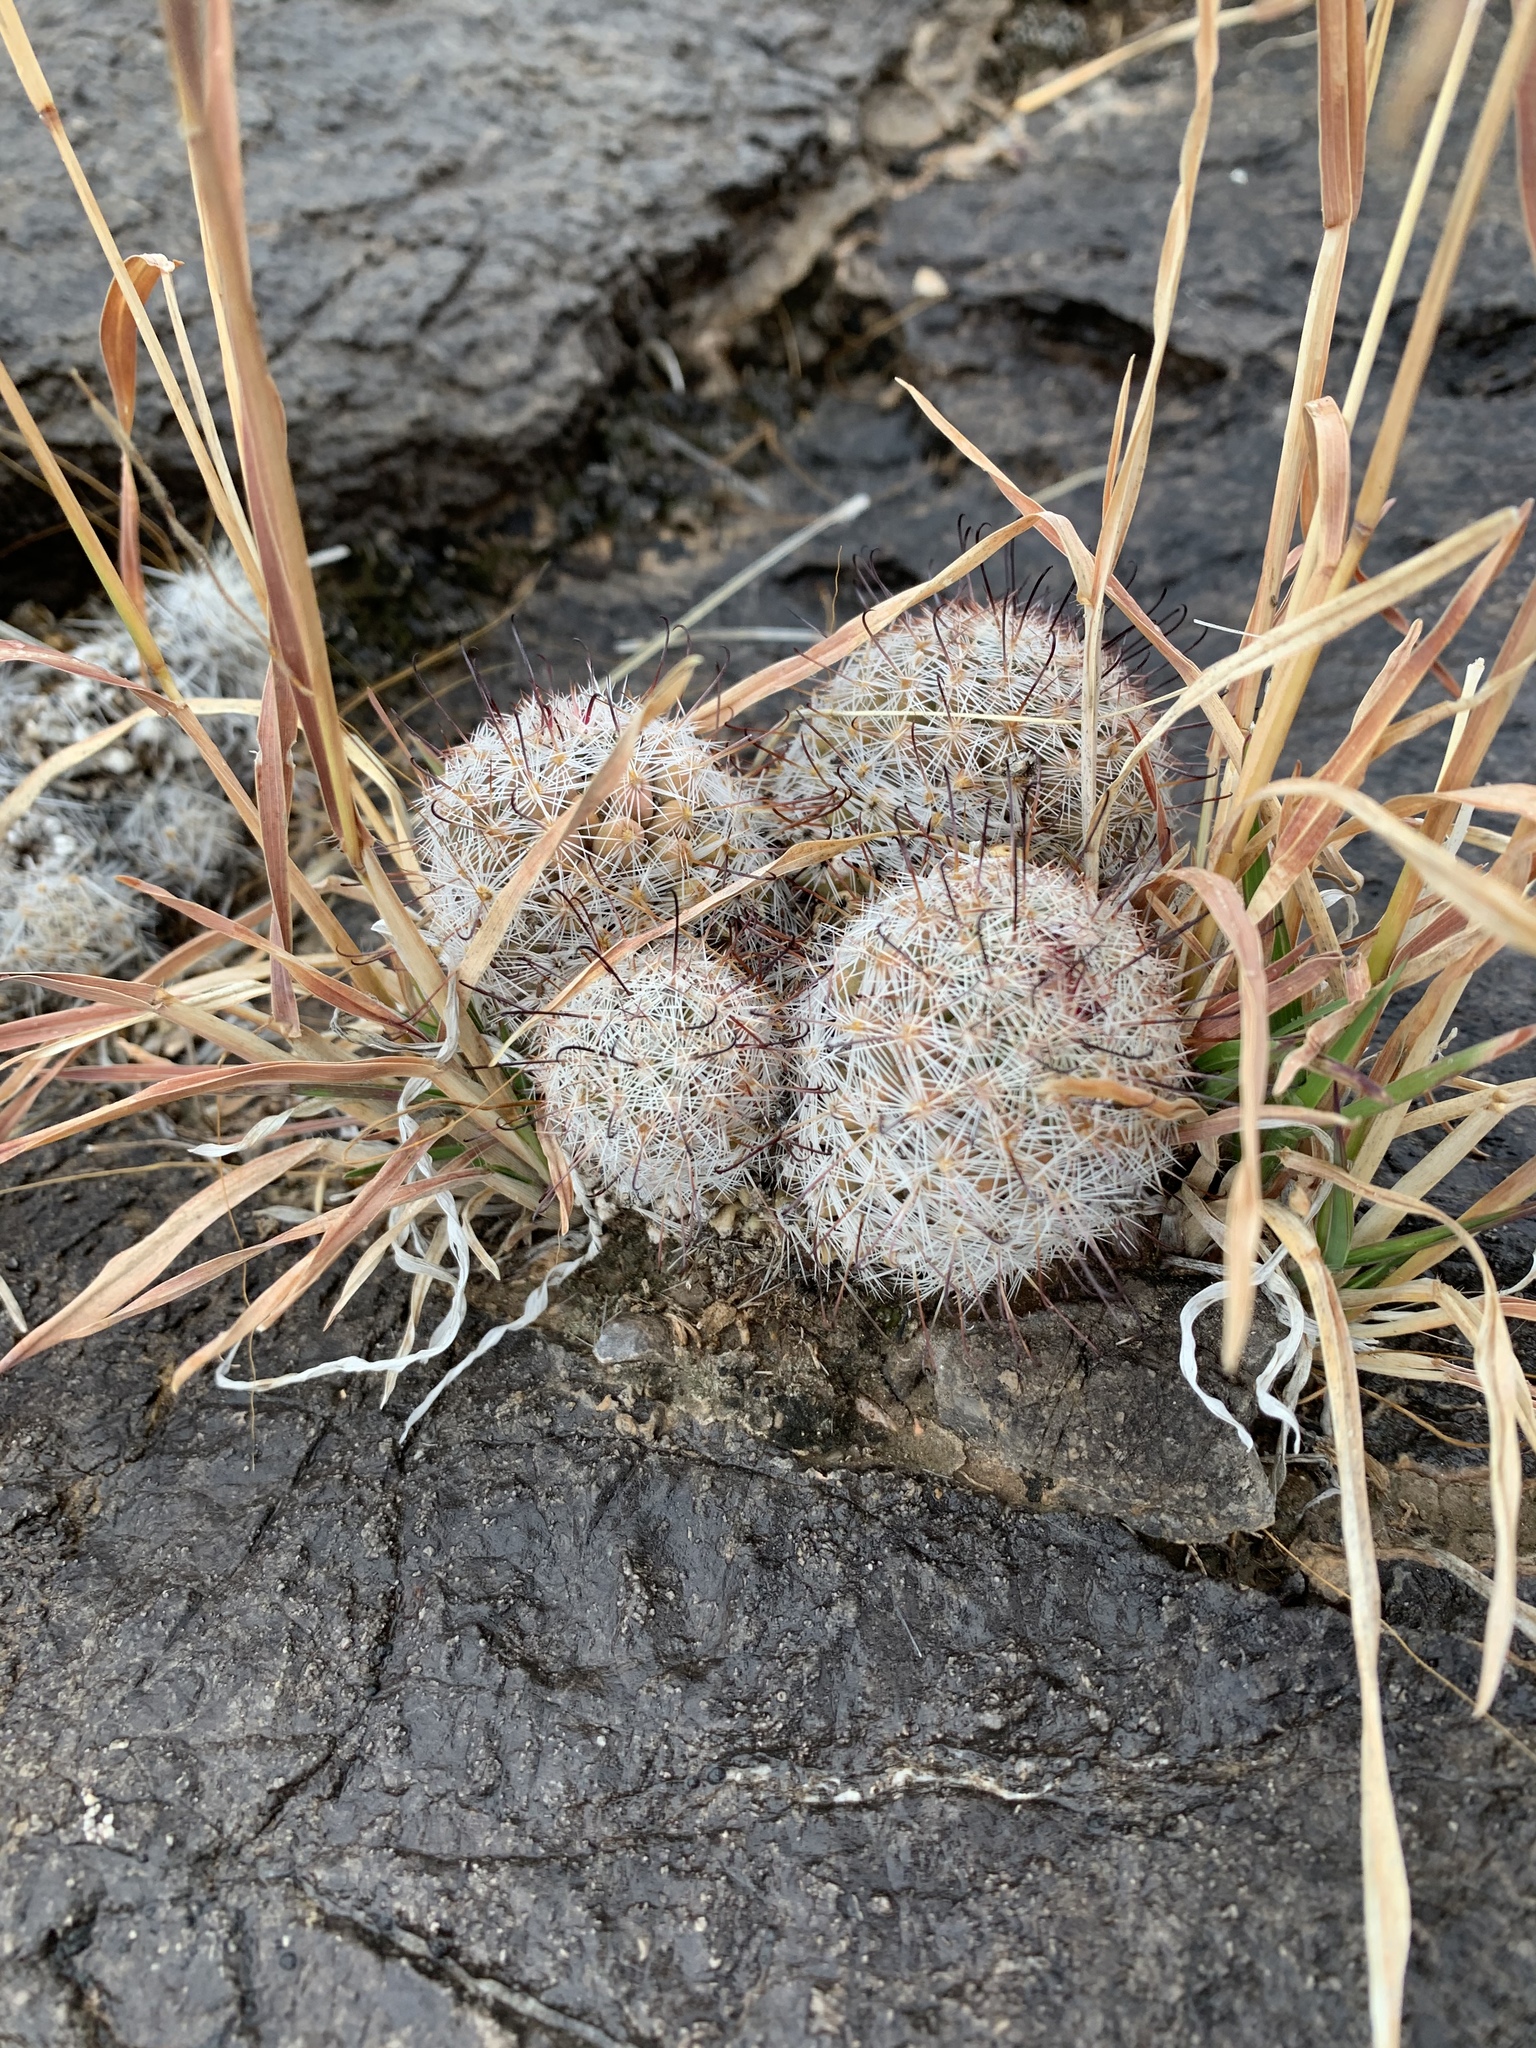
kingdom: Plantae
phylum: Tracheophyta
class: Magnoliopsida
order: Caryophyllales
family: Cactaceae
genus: Cochemiea
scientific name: Cochemiea grahamii
